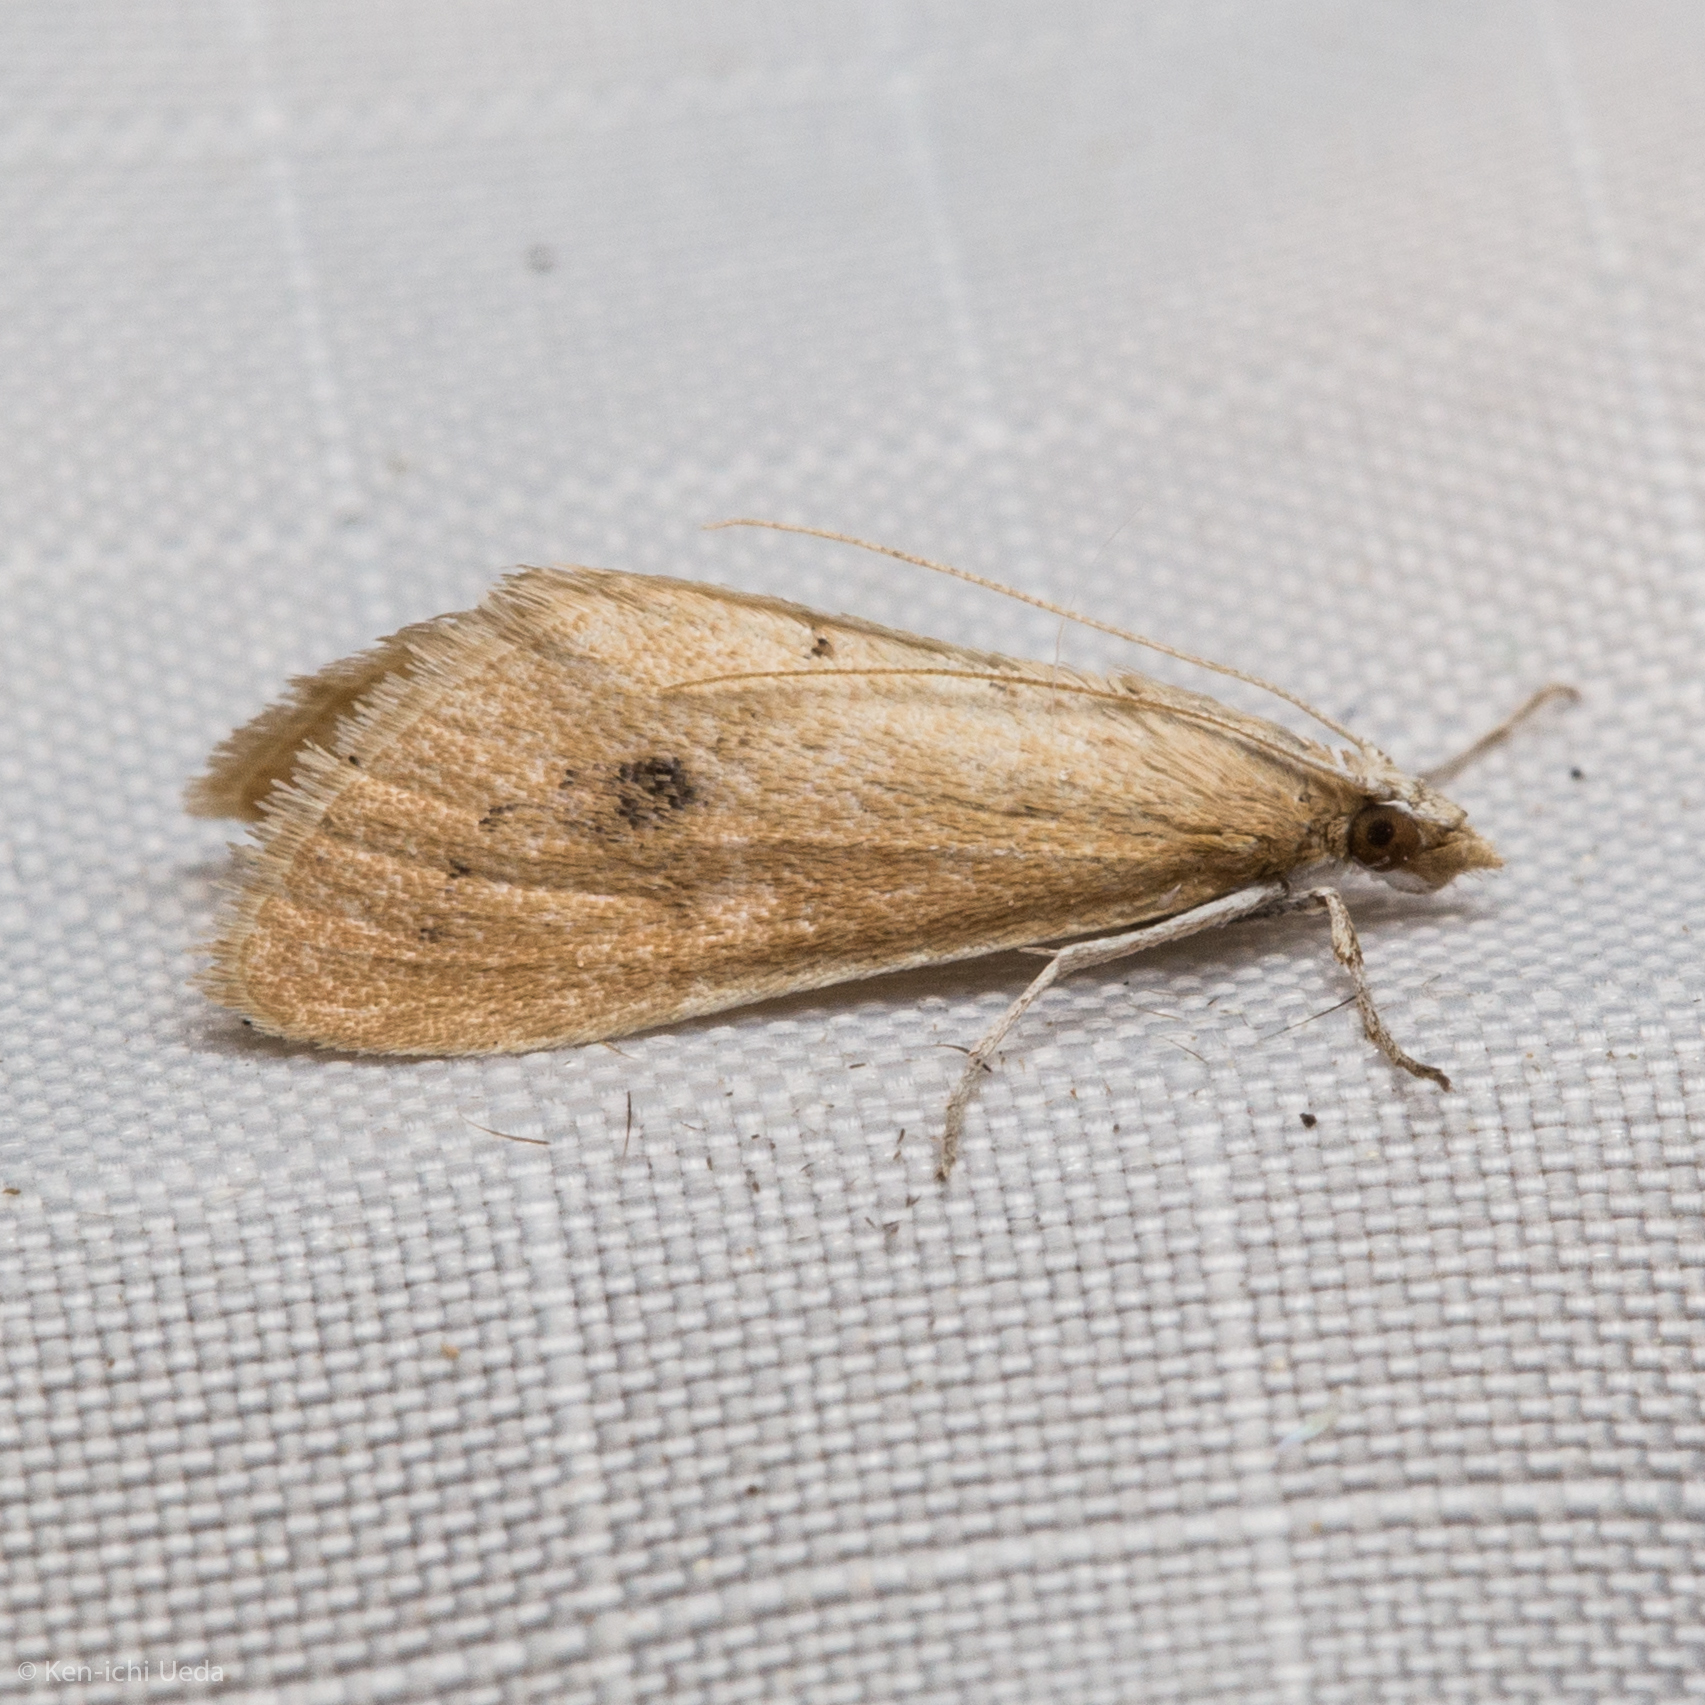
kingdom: Animalia
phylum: Arthropoda
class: Insecta
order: Lepidoptera
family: Crambidae
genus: Arenochroa
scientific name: Arenochroa flavalis
